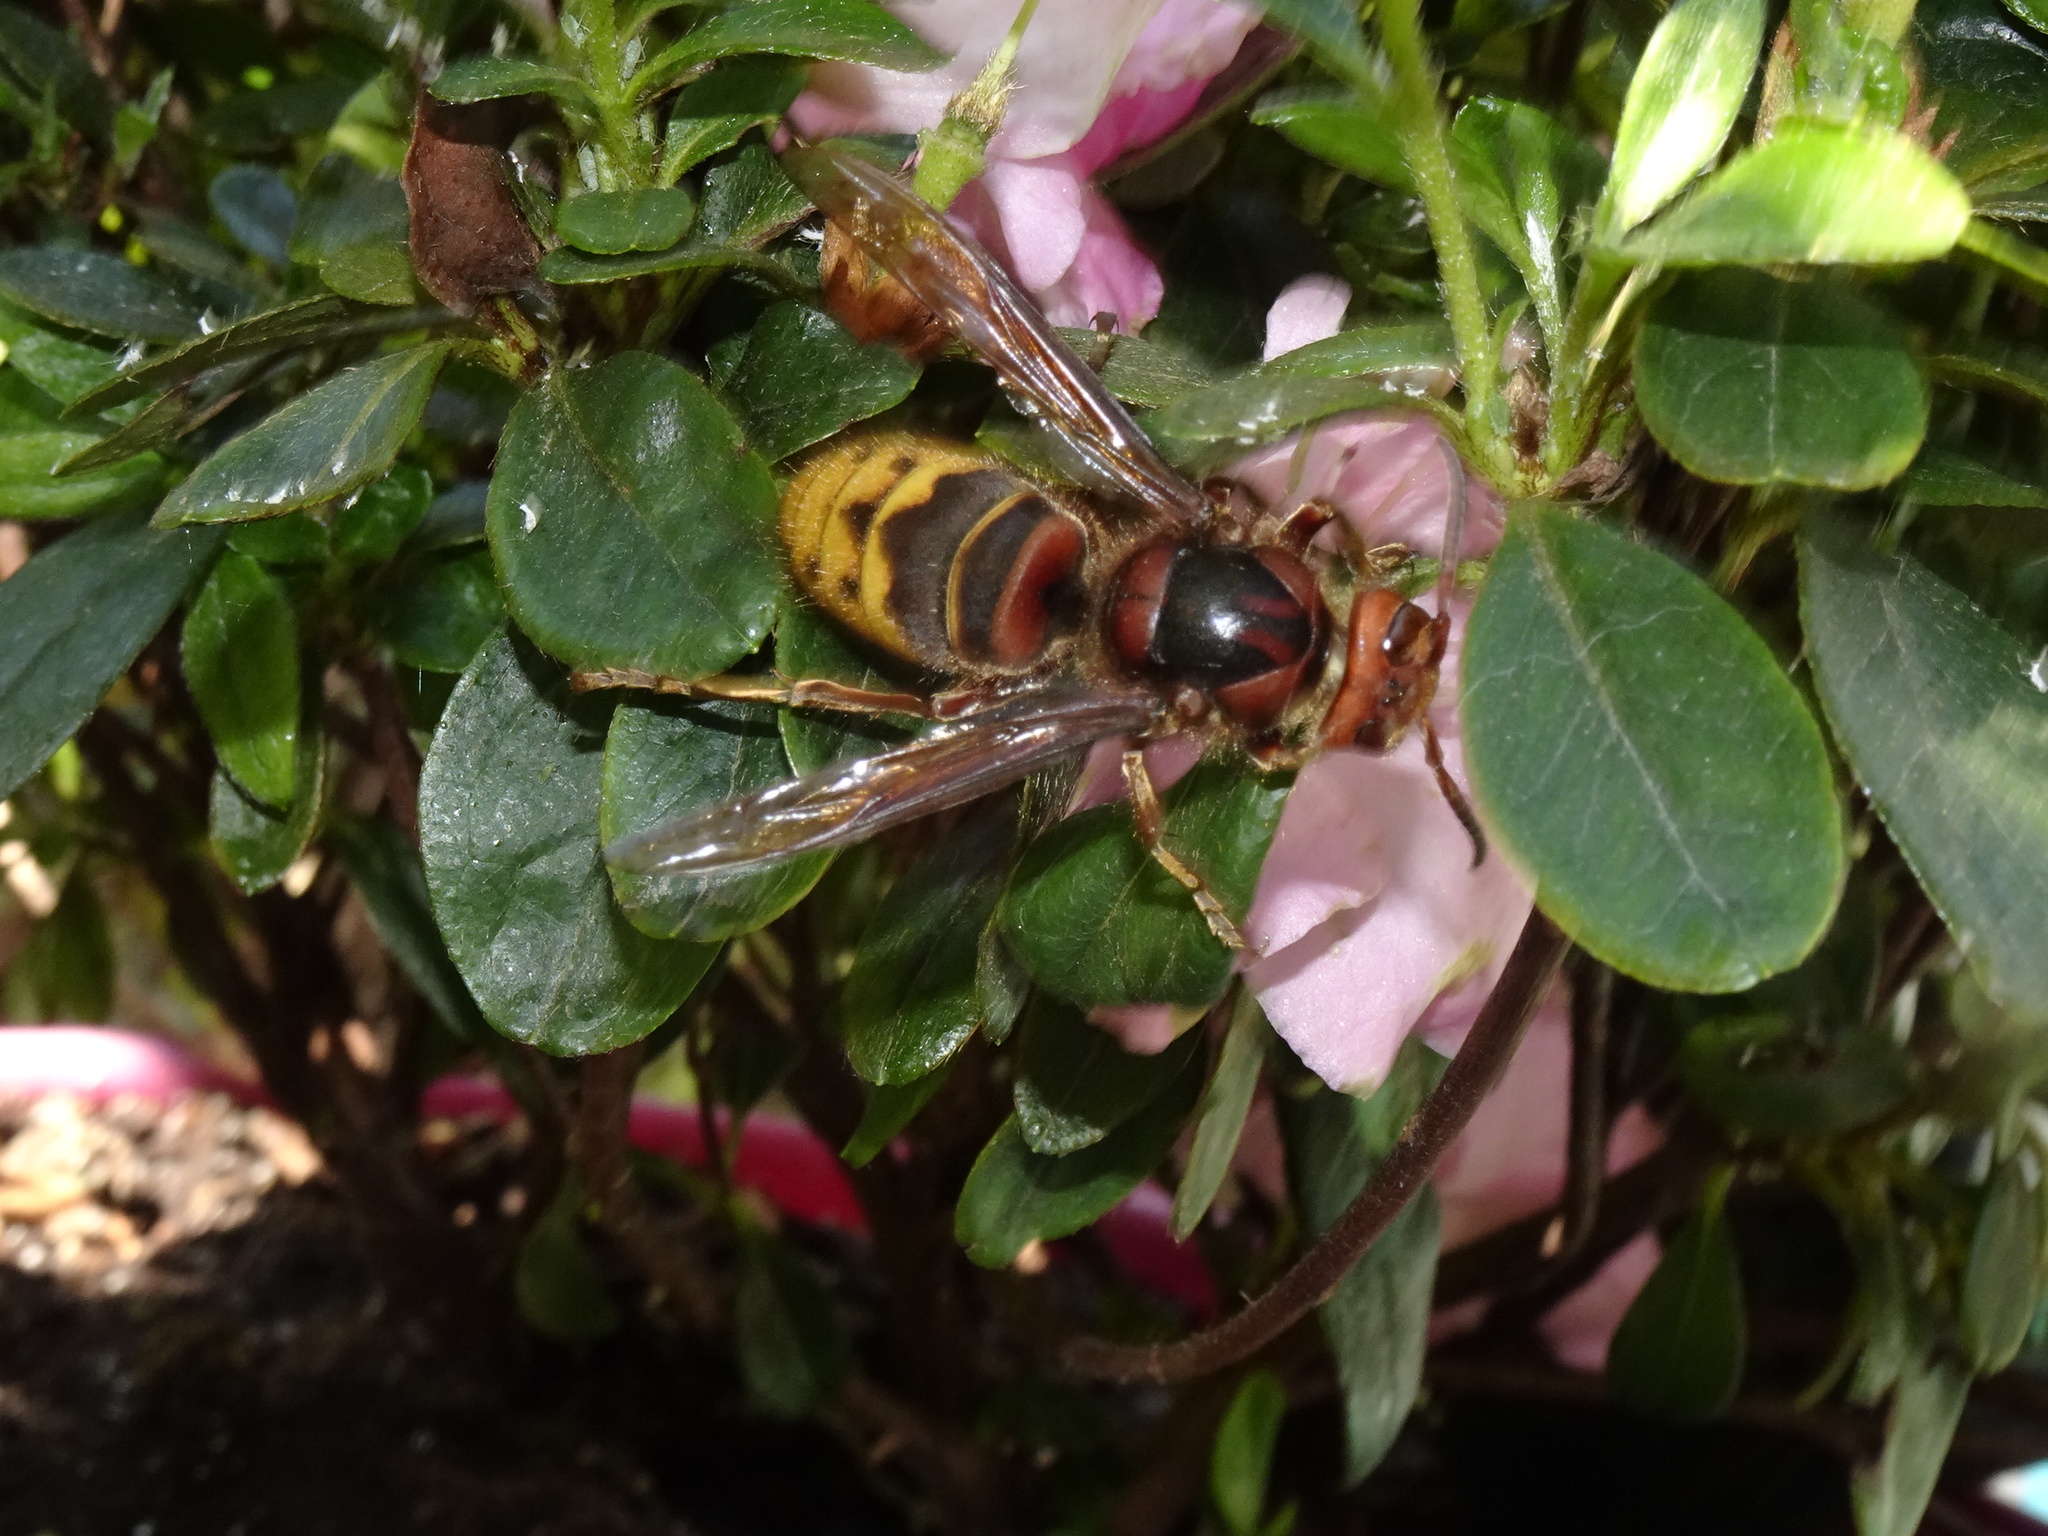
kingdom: Animalia
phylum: Arthropoda
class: Insecta
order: Hymenoptera
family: Vespidae
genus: Vespa
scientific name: Vespa crabro
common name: Hornet
